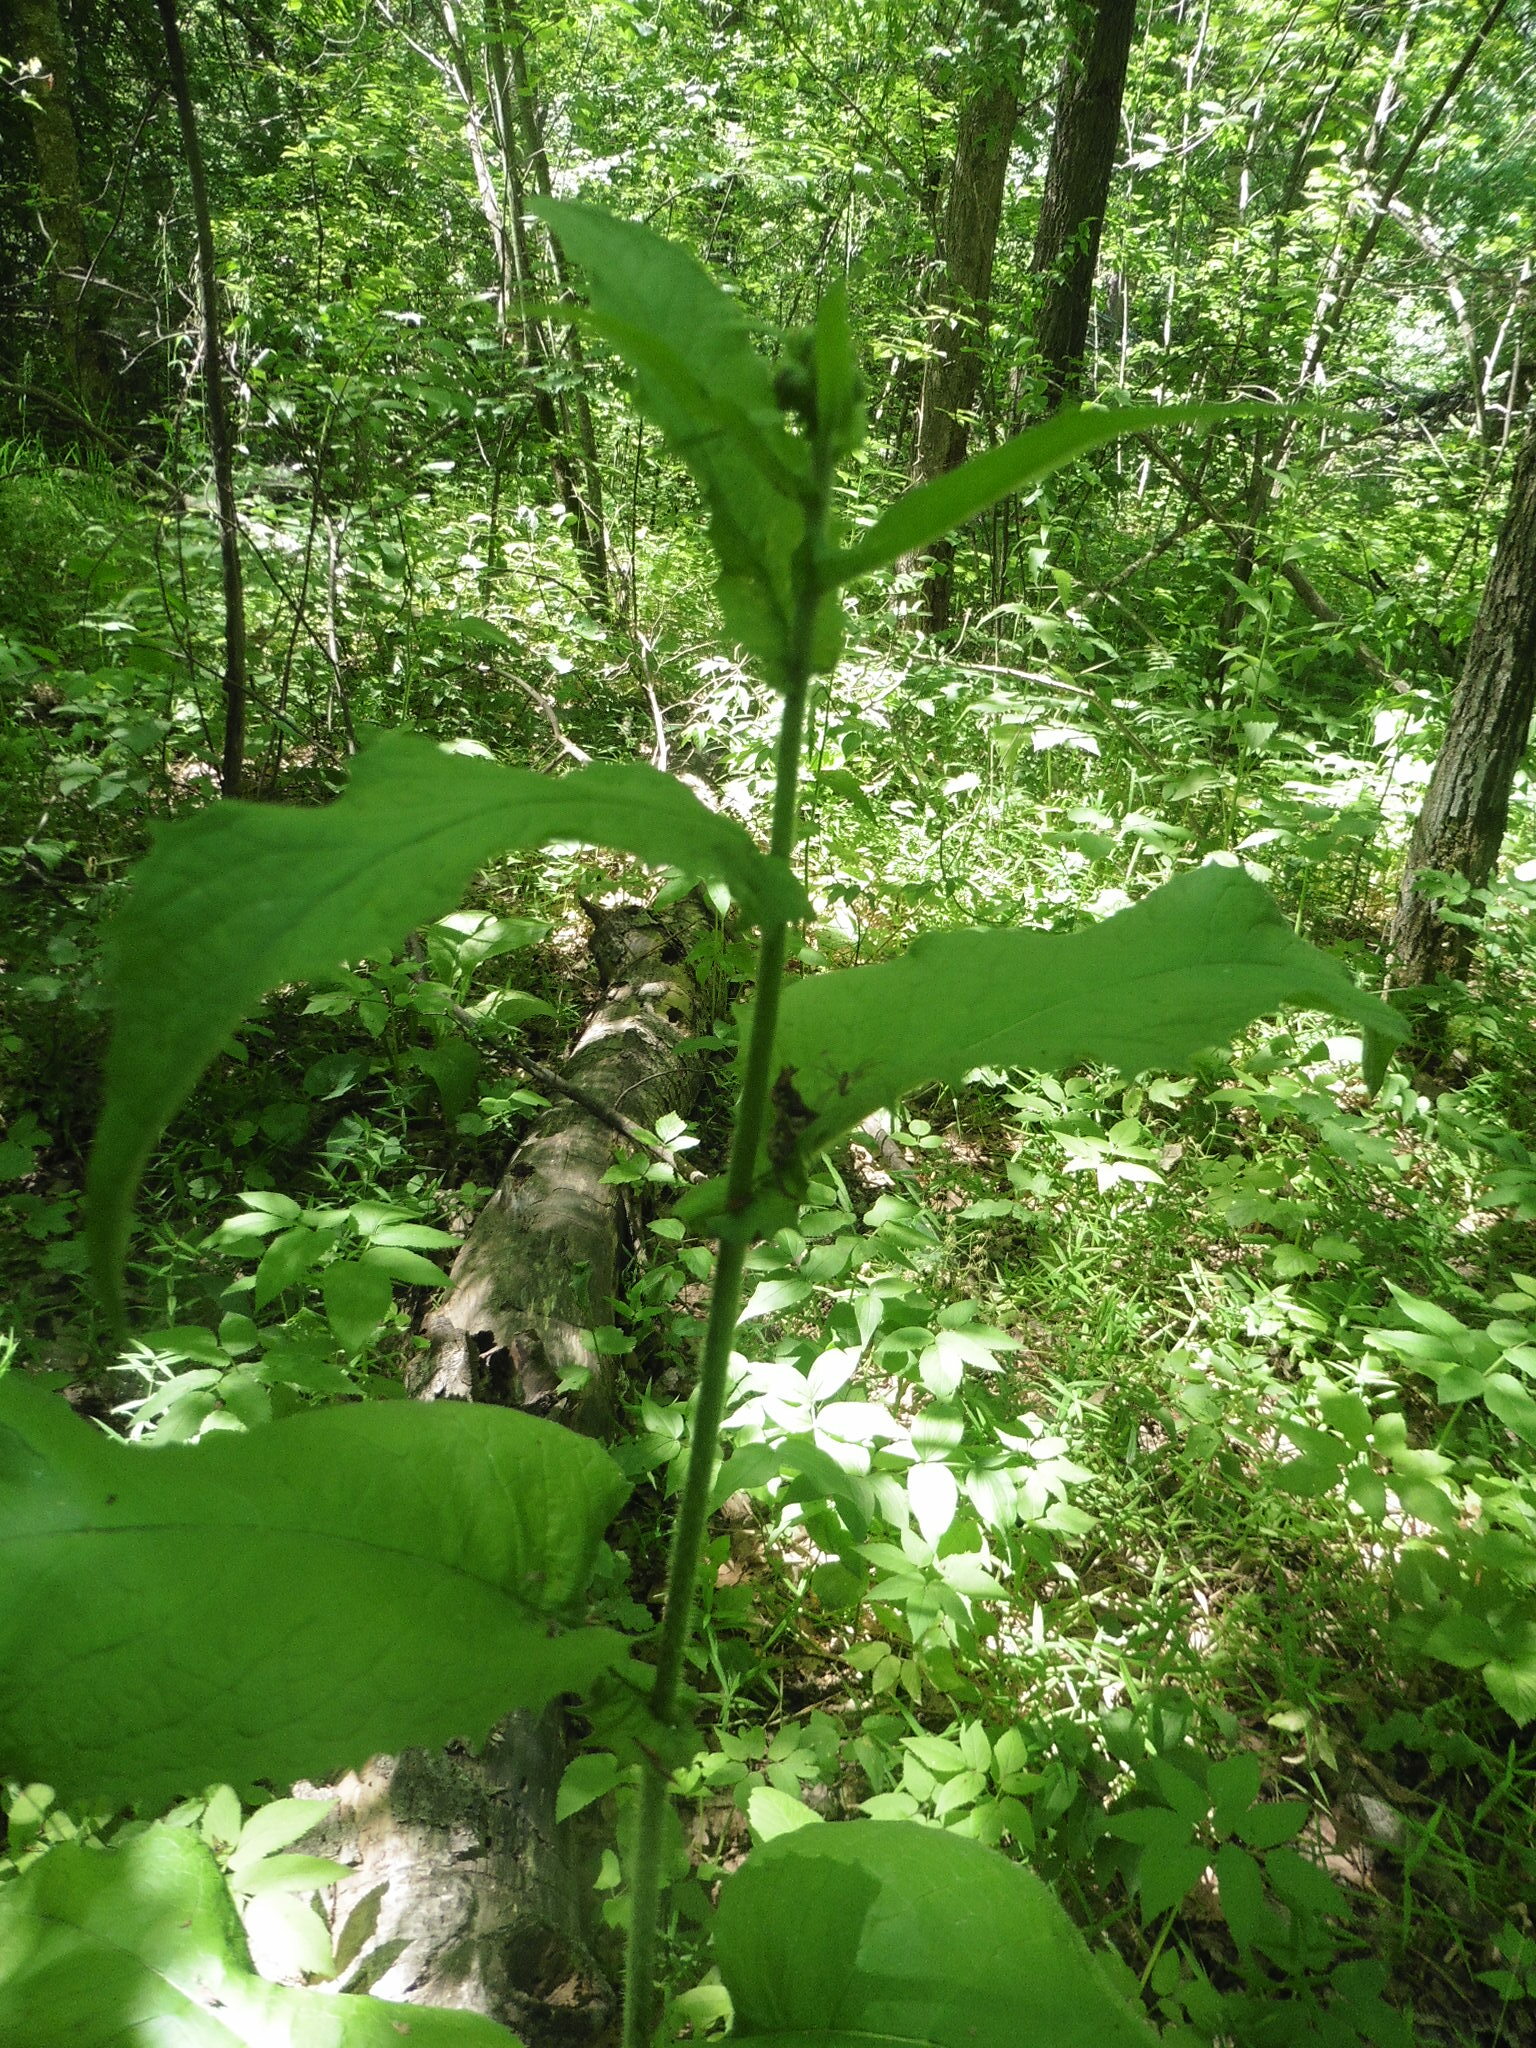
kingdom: Plantae
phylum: Tracheophyta
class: Magnoliopsida
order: Asterales
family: Asteraceae
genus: Crepis
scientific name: Crepis sibirica
